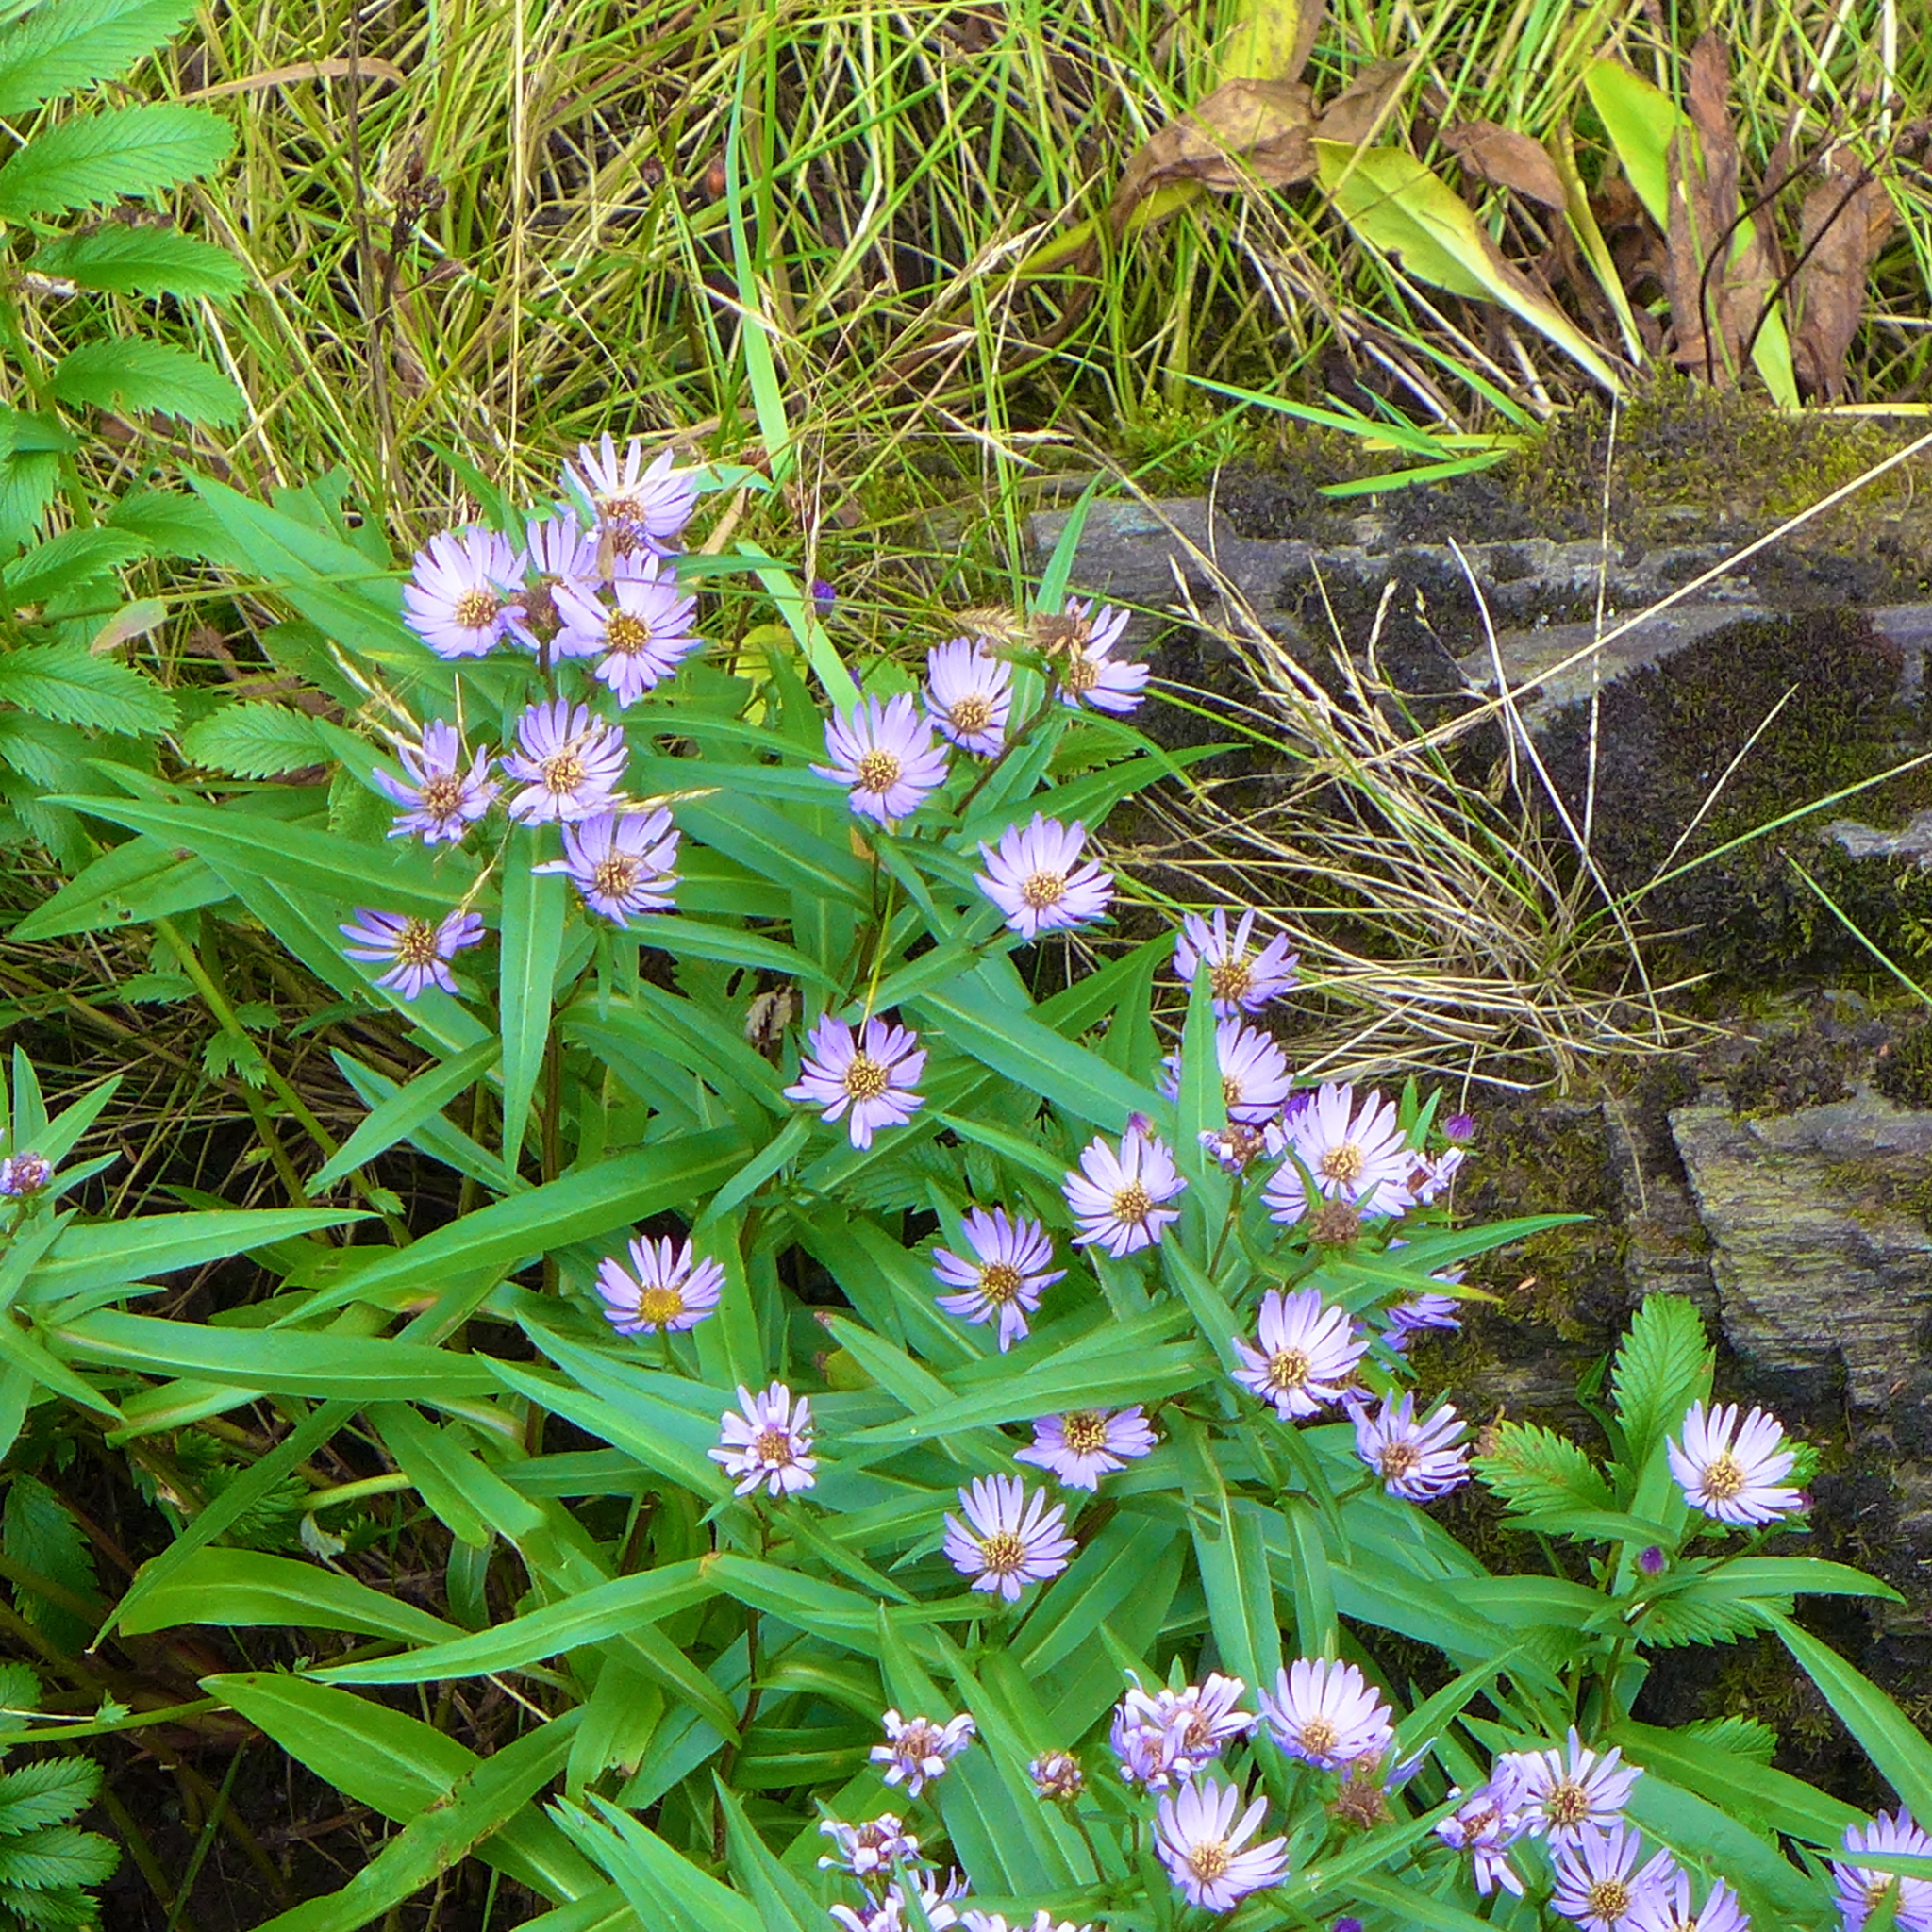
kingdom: Plantae
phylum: Tracheophyta
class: Magnoliopsida
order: Asterales
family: Asteraceae
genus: Symphyotrichum
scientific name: Symphyotrichum subspicatum
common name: Douglas' aster
